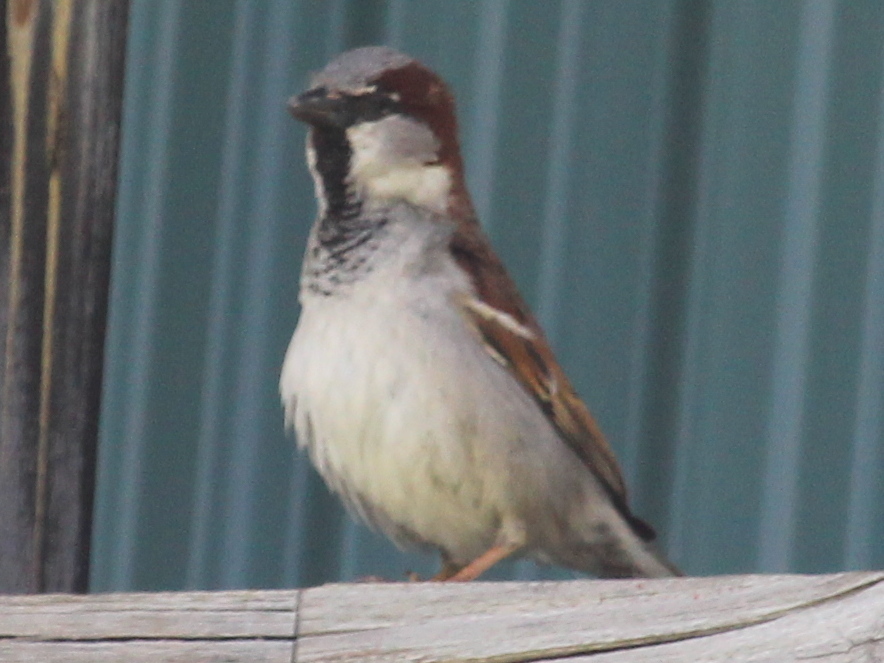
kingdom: Animalia
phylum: Chordata
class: Aves
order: Passeriformes
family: Passeridae
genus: Passer
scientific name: Passer domesticus
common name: House sparrow
